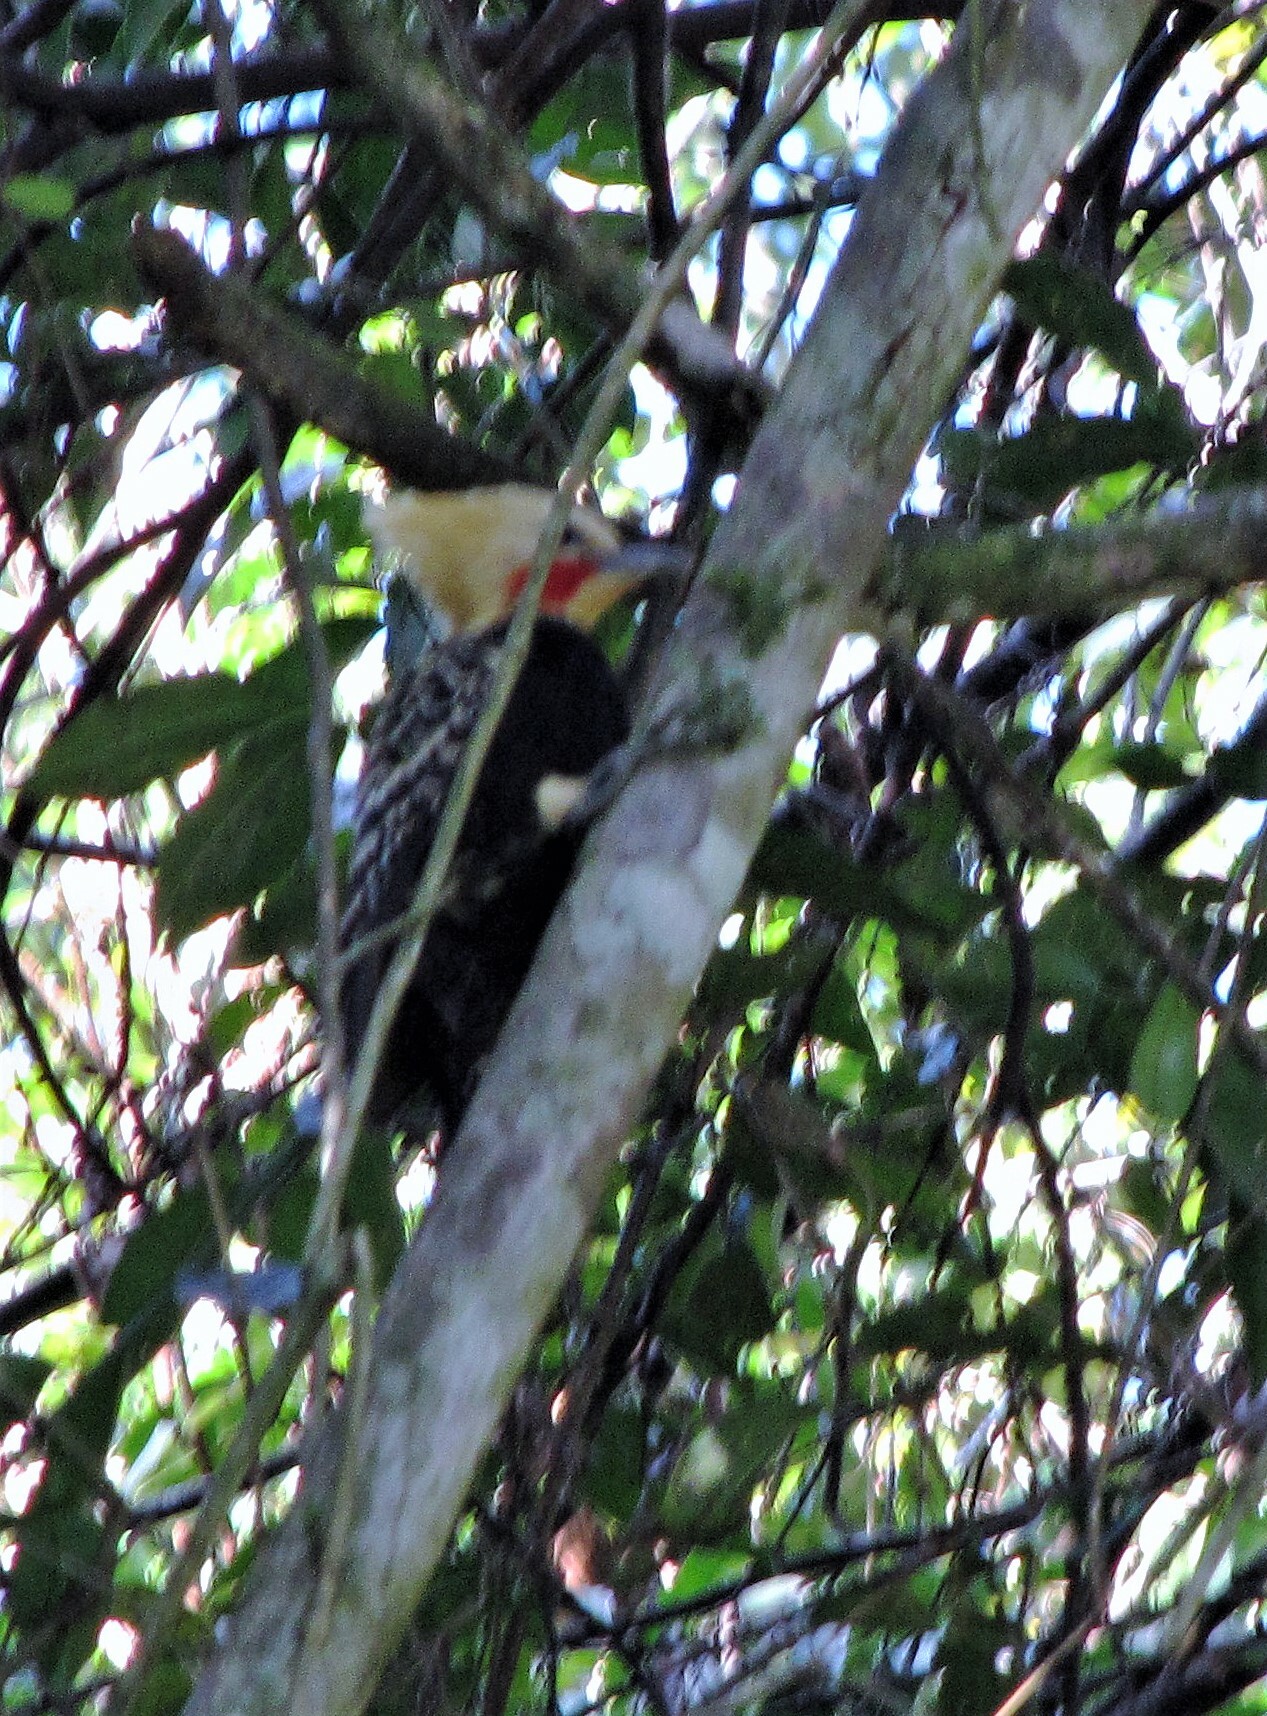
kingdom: Animalia
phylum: Chordata
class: Aves
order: Piciformes
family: Picidae
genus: Celeus
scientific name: Celeus flavescens
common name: Blond-crested woodpecker
